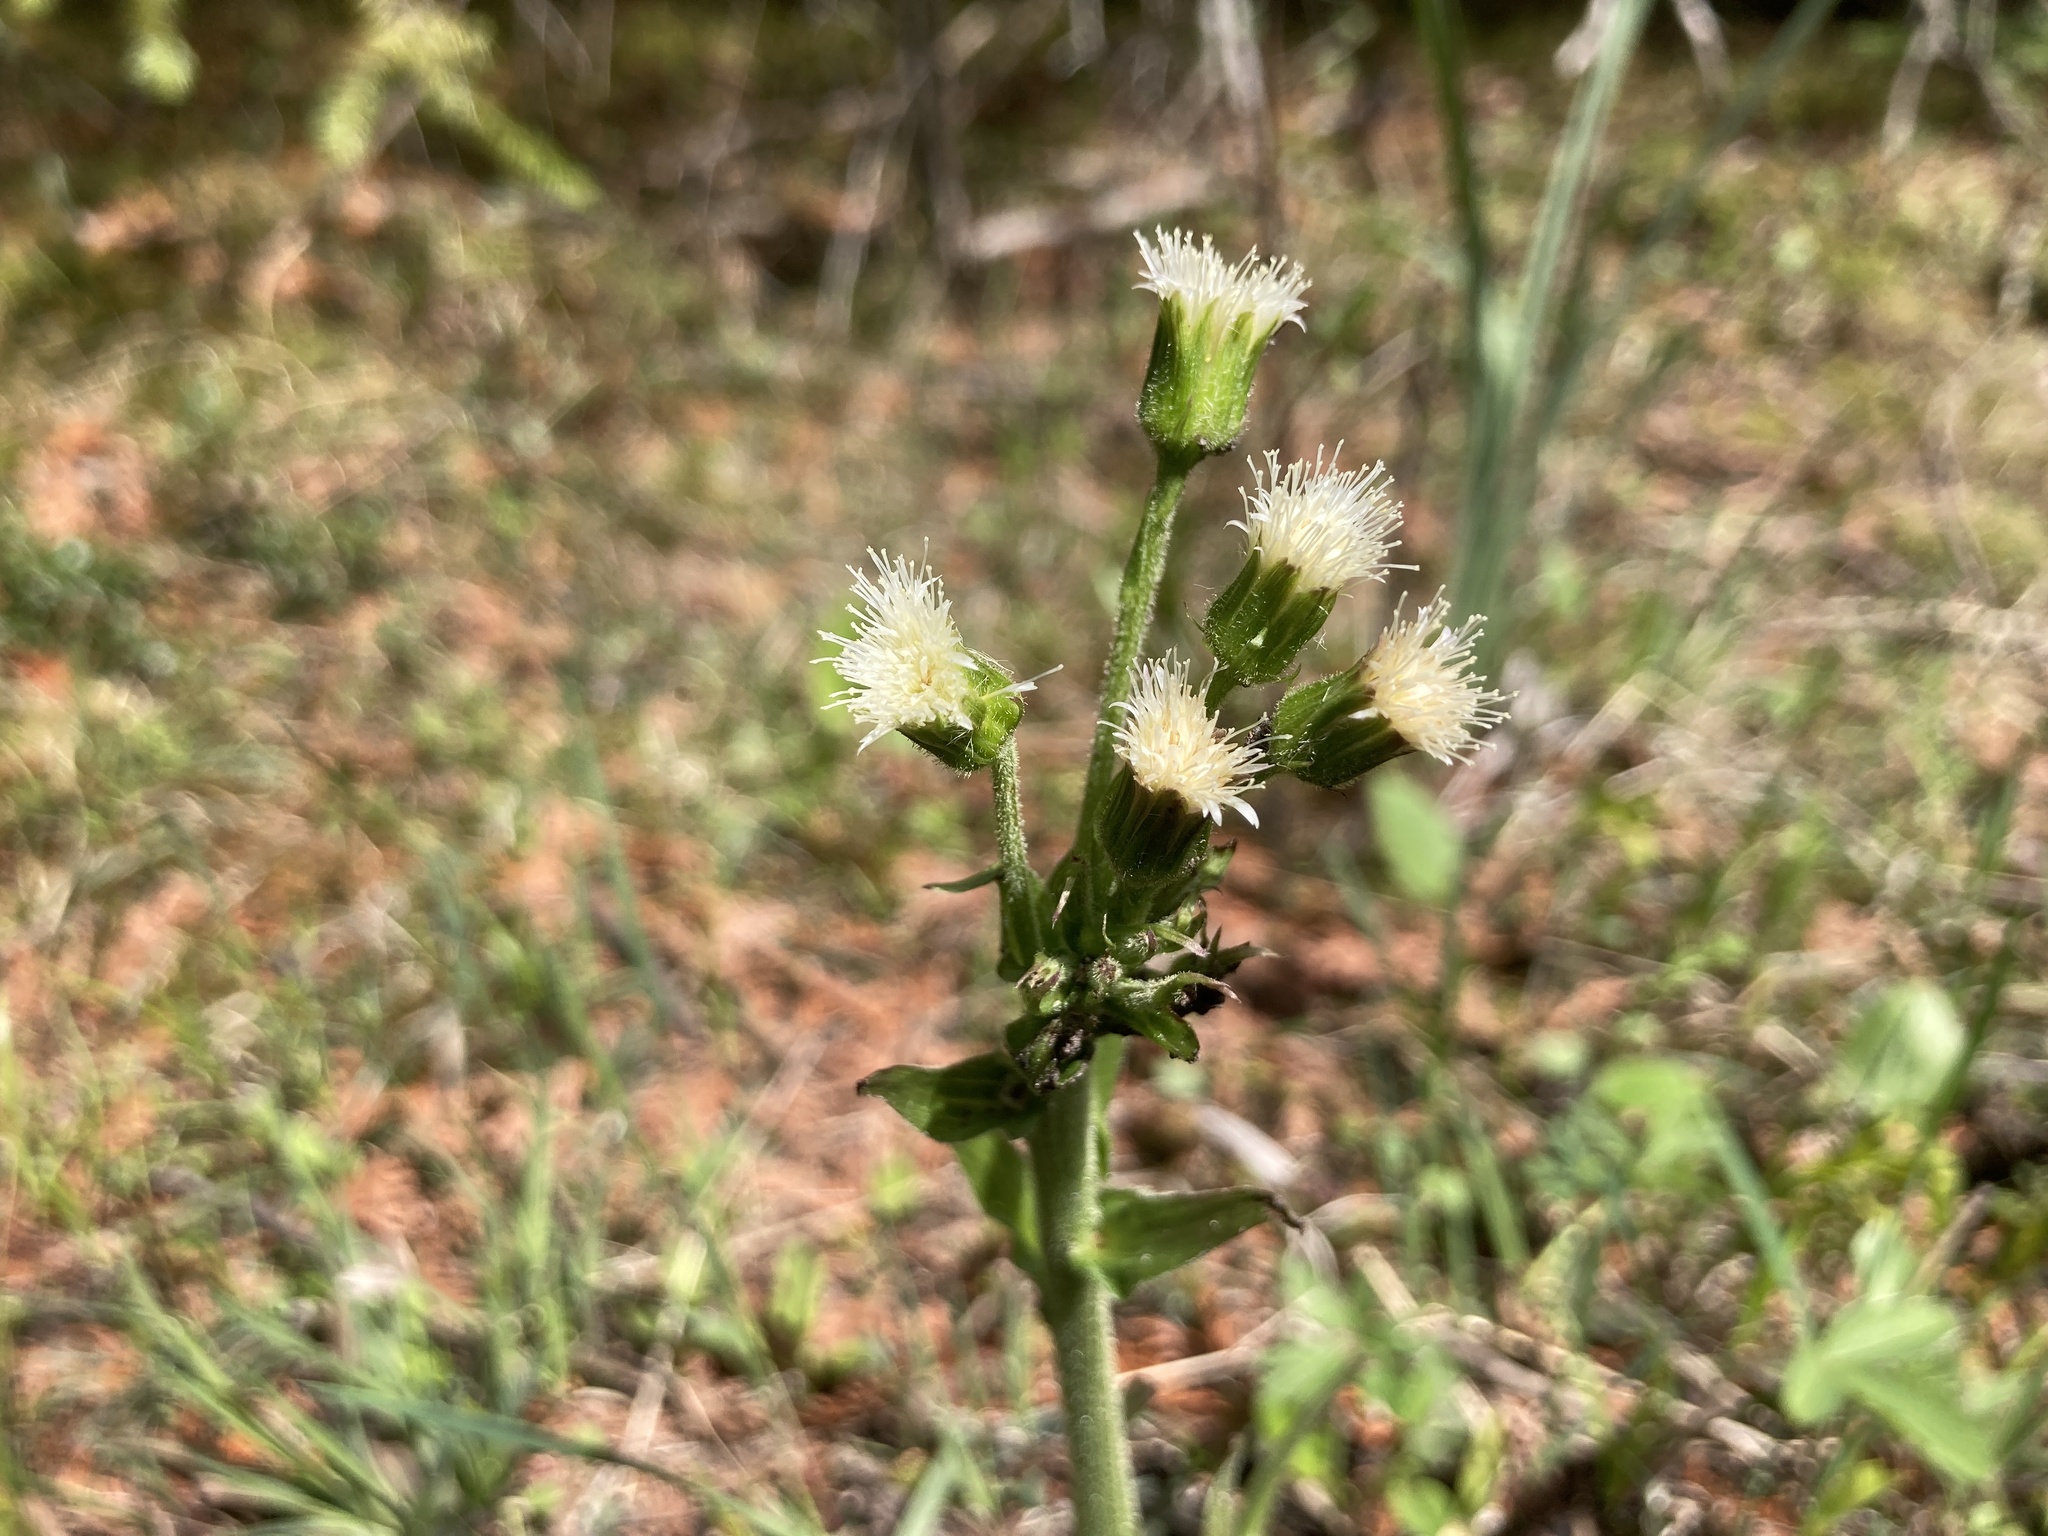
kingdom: Plantae
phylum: Tracheophyta
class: Magnoliopsida
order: Asterales
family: Asteraceae
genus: Petasites
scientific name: Petasites frigidus
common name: Arctic butterbur
